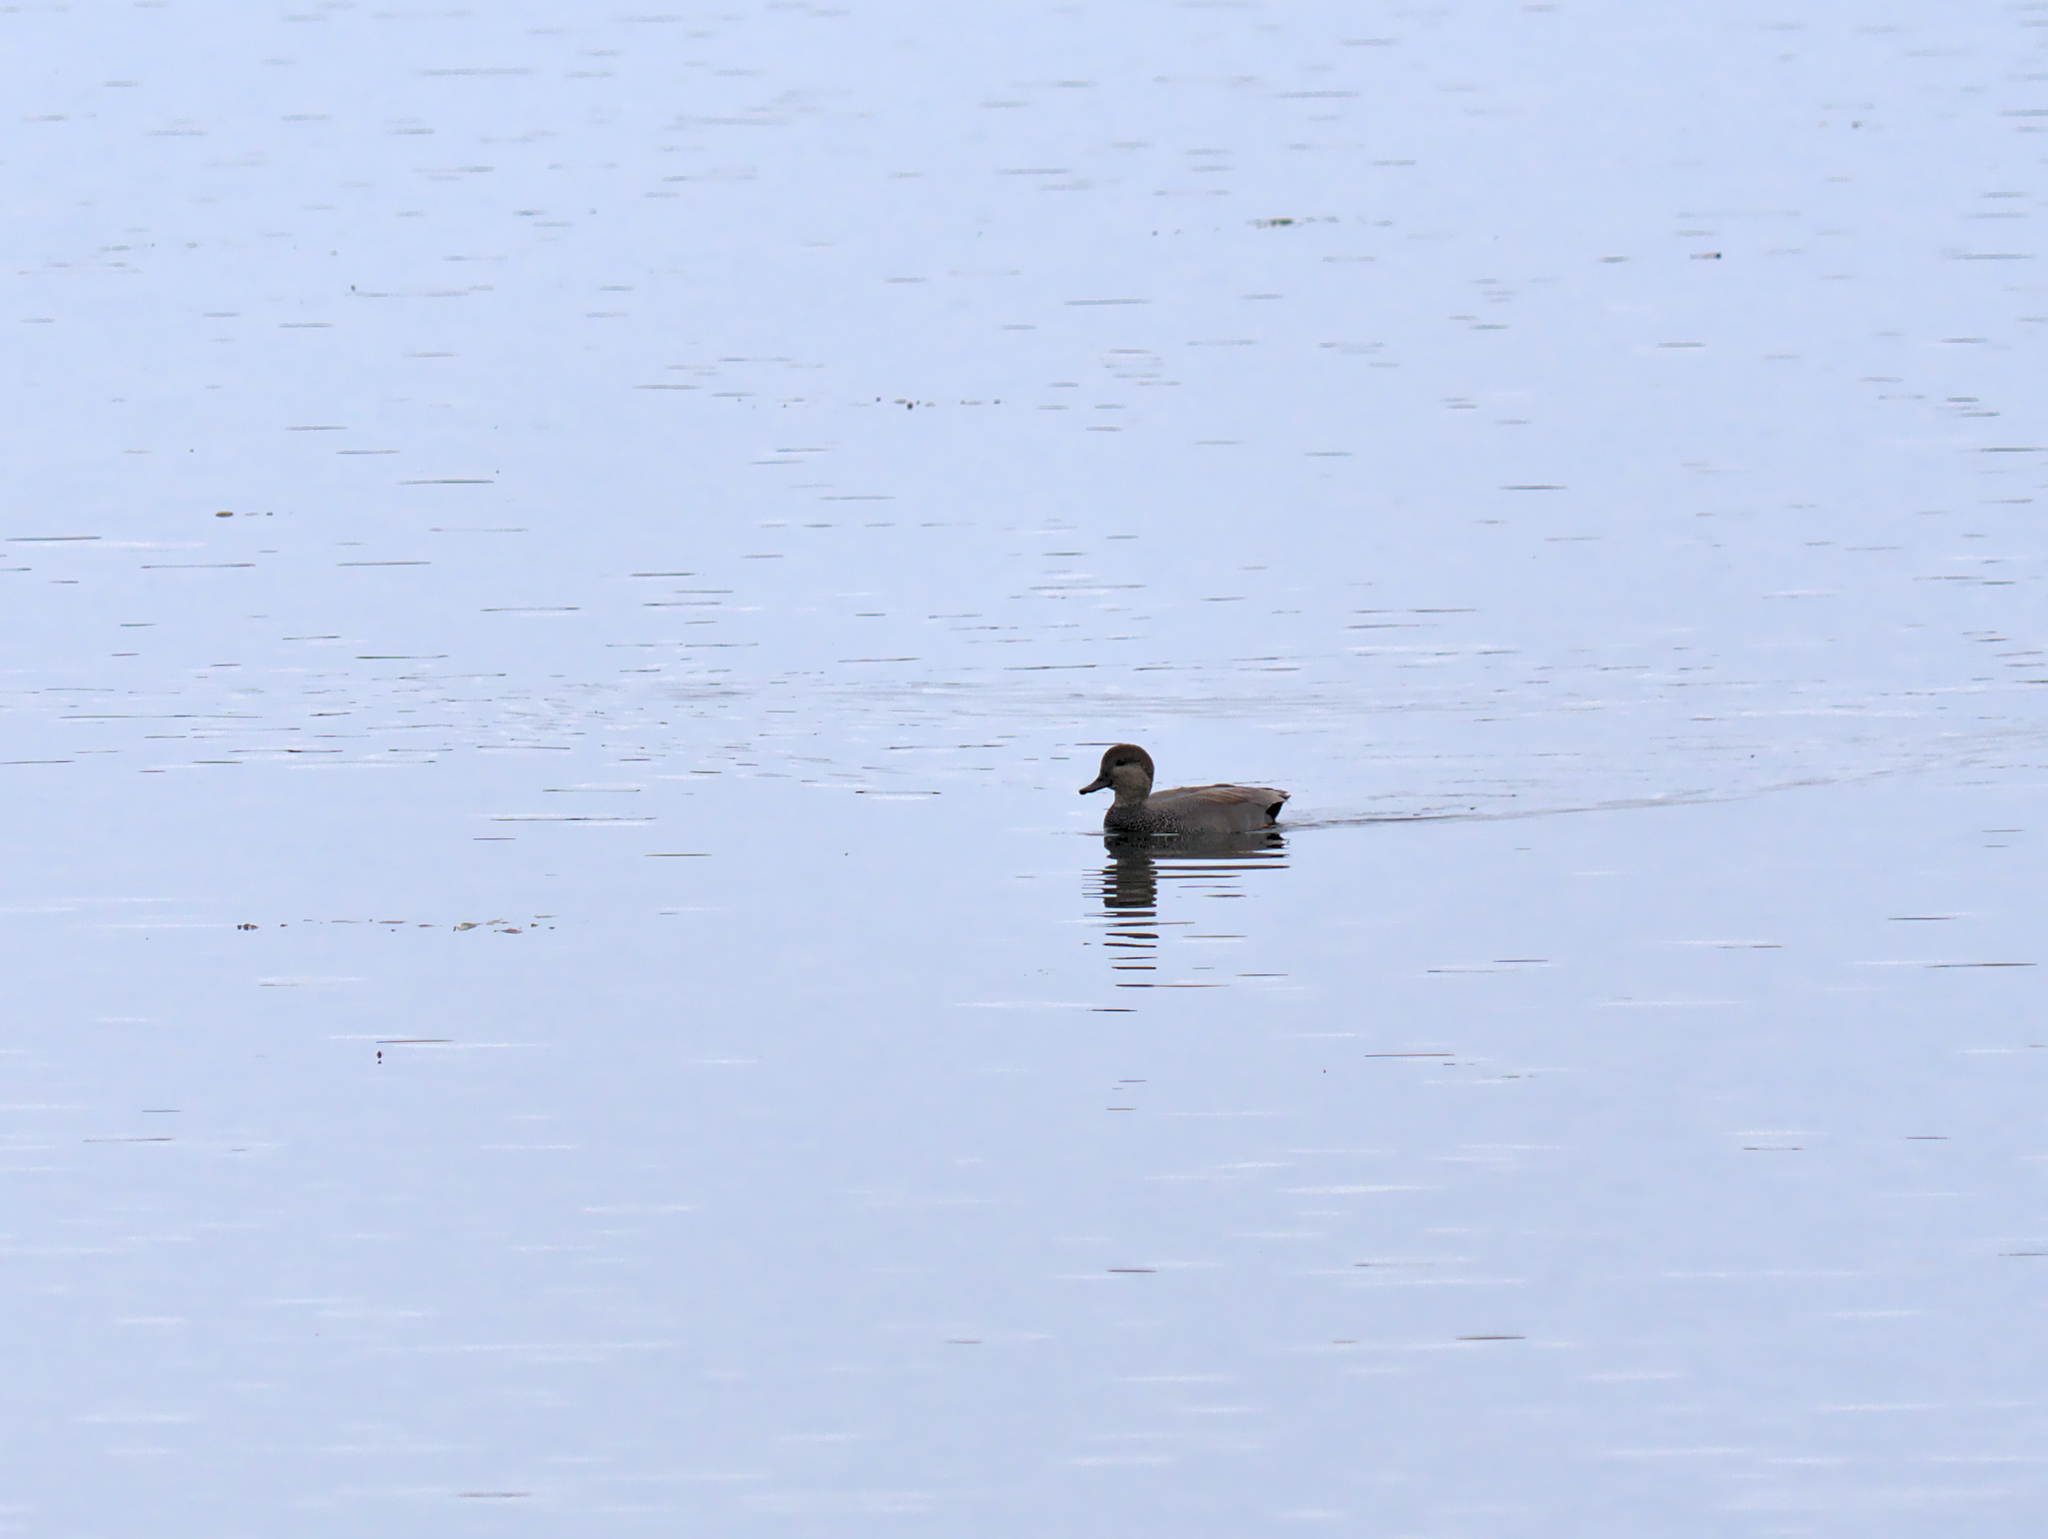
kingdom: Animalia
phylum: Chordata
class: Aves
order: Anseriformes
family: Anatidae
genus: Mareca
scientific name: Mareca strepera
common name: Gadwall
